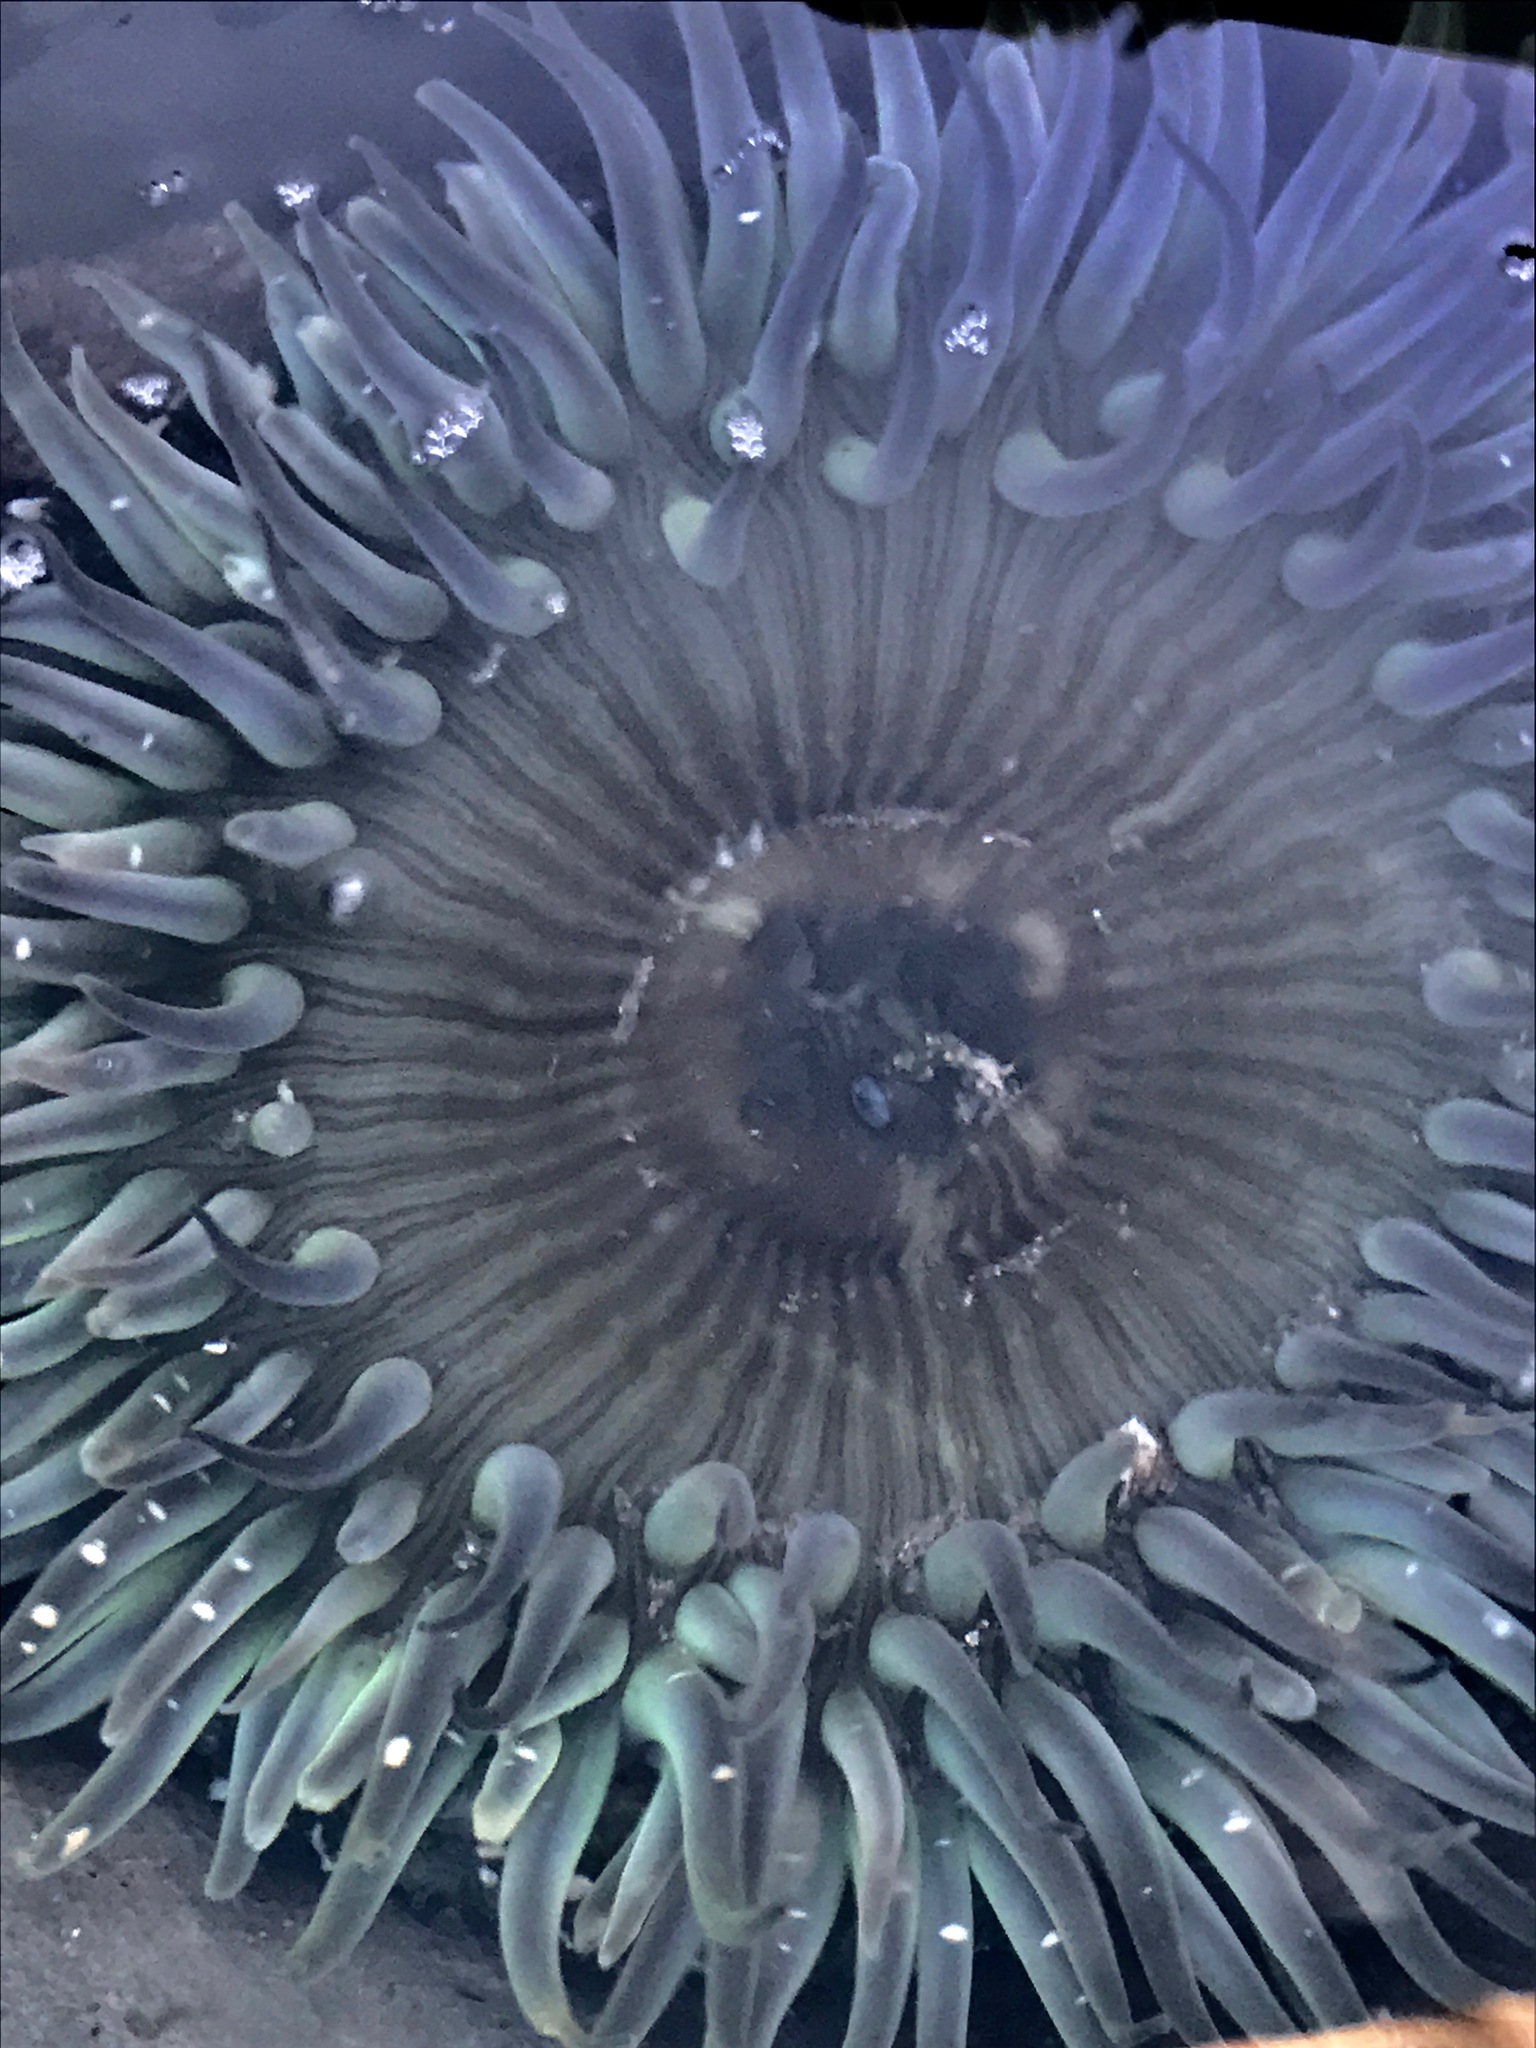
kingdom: Animalia
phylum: Cnidaria
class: Anthozoa
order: Actiniaria
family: Actiniidae
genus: Anthopleura
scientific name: Anthopleura sola
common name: Sun anemone
